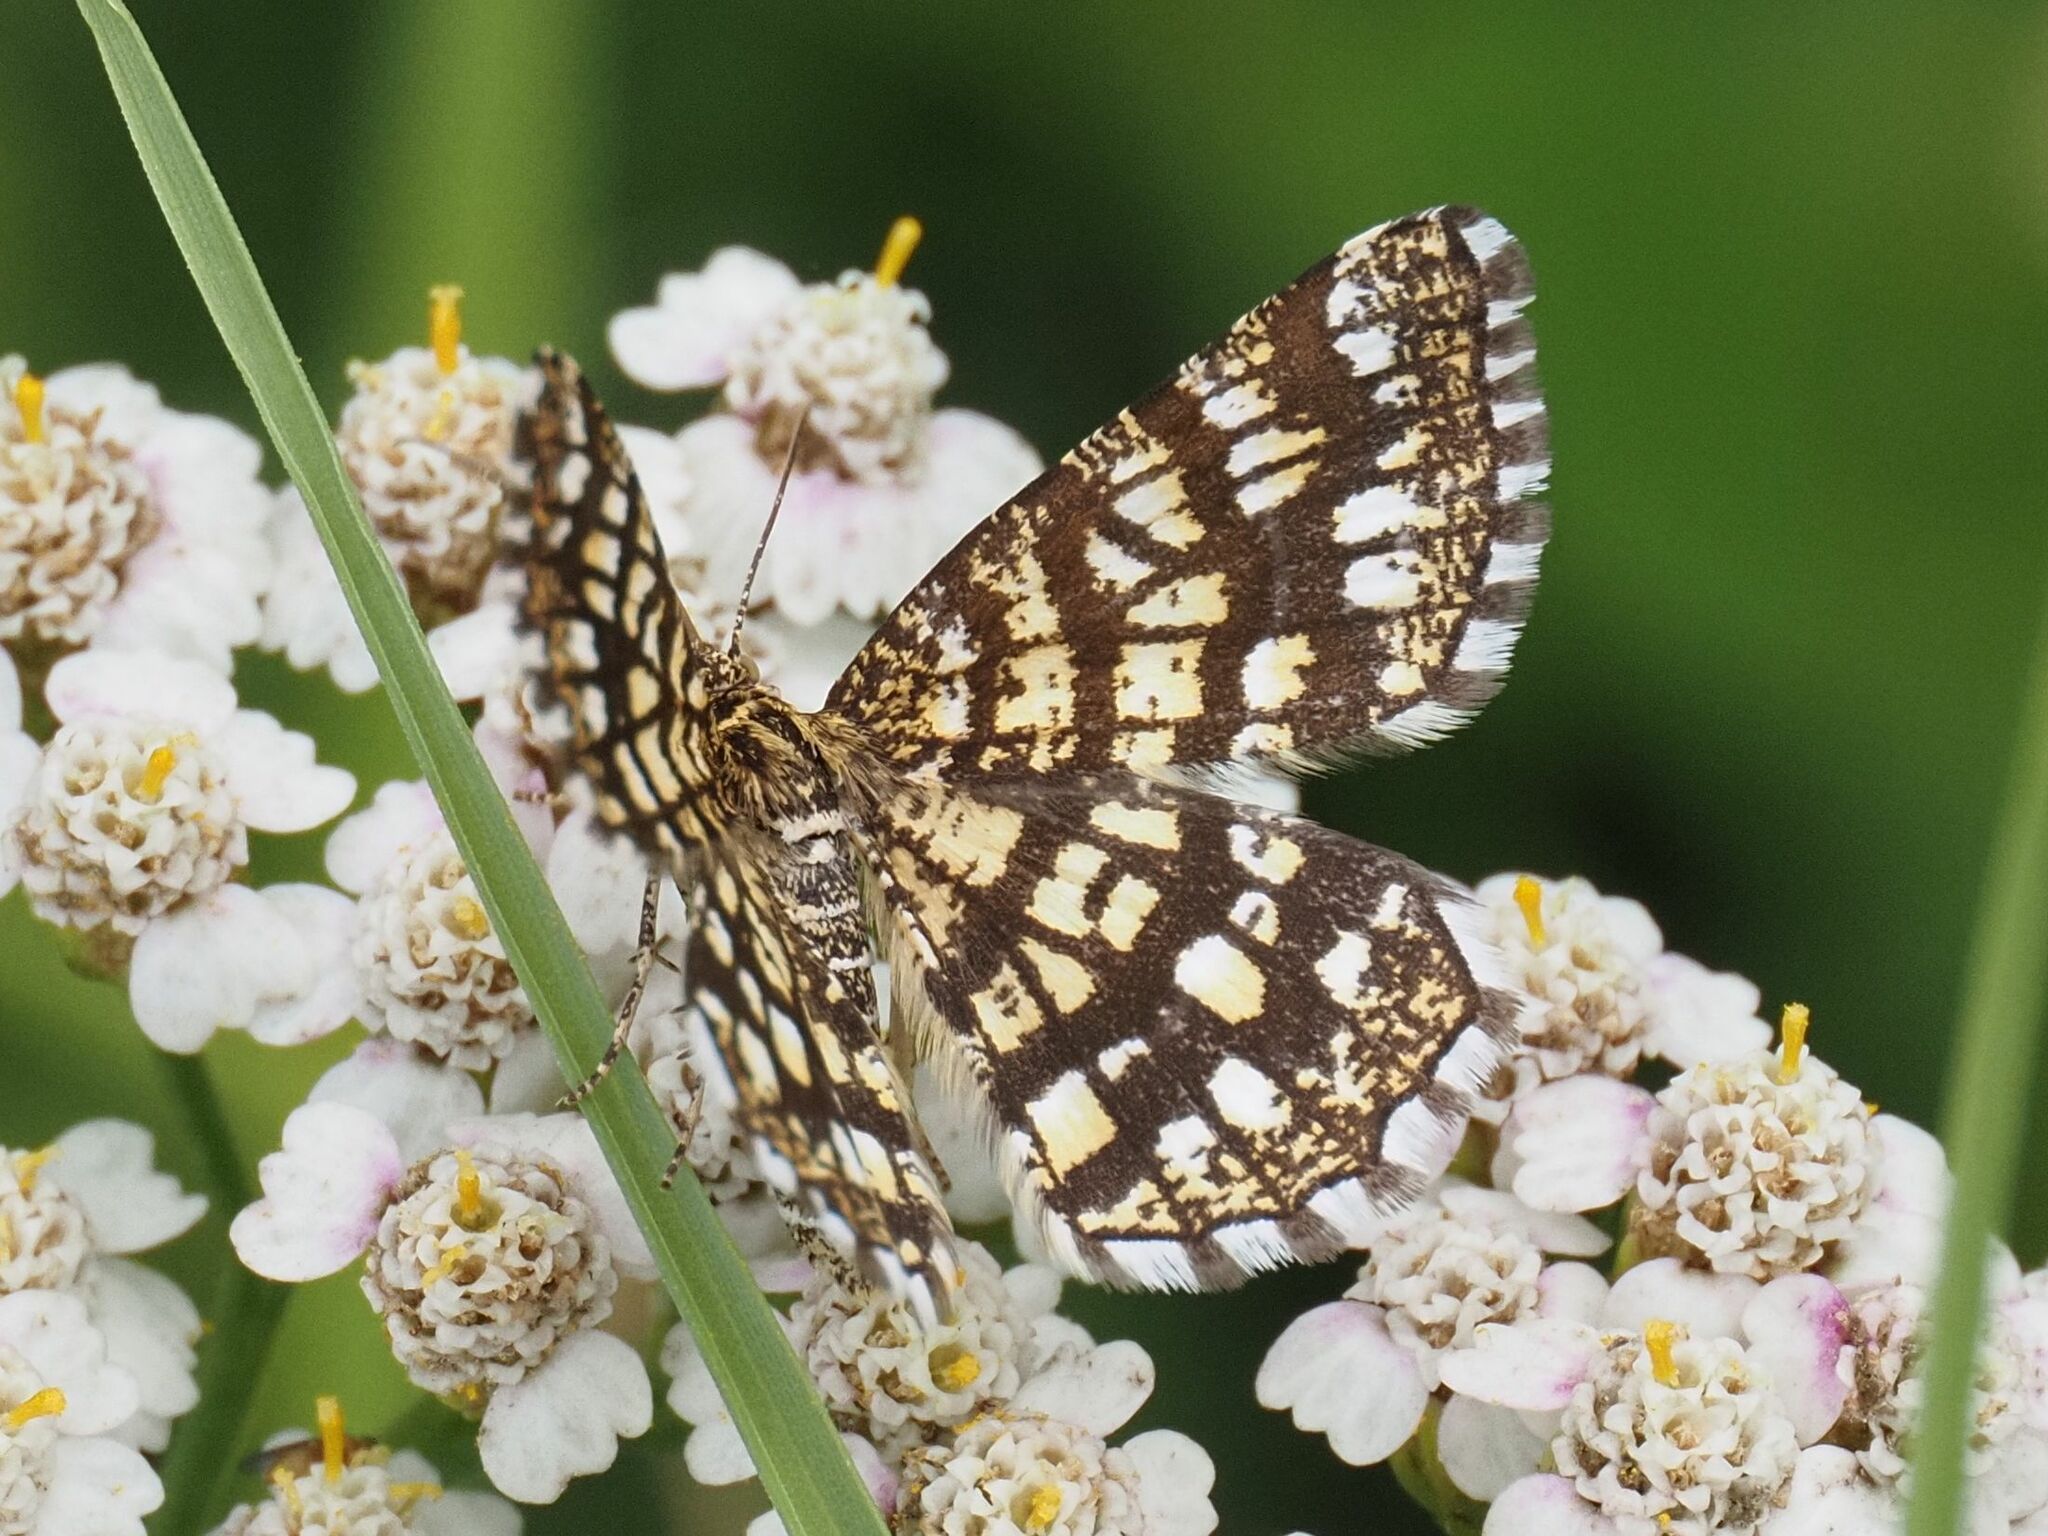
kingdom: Animalia
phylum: Arthropoda
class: Insecta
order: Lepidoptera
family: Geometridae
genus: Chiasmia
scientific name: Chiasmia clathrata
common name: Latticed heath
